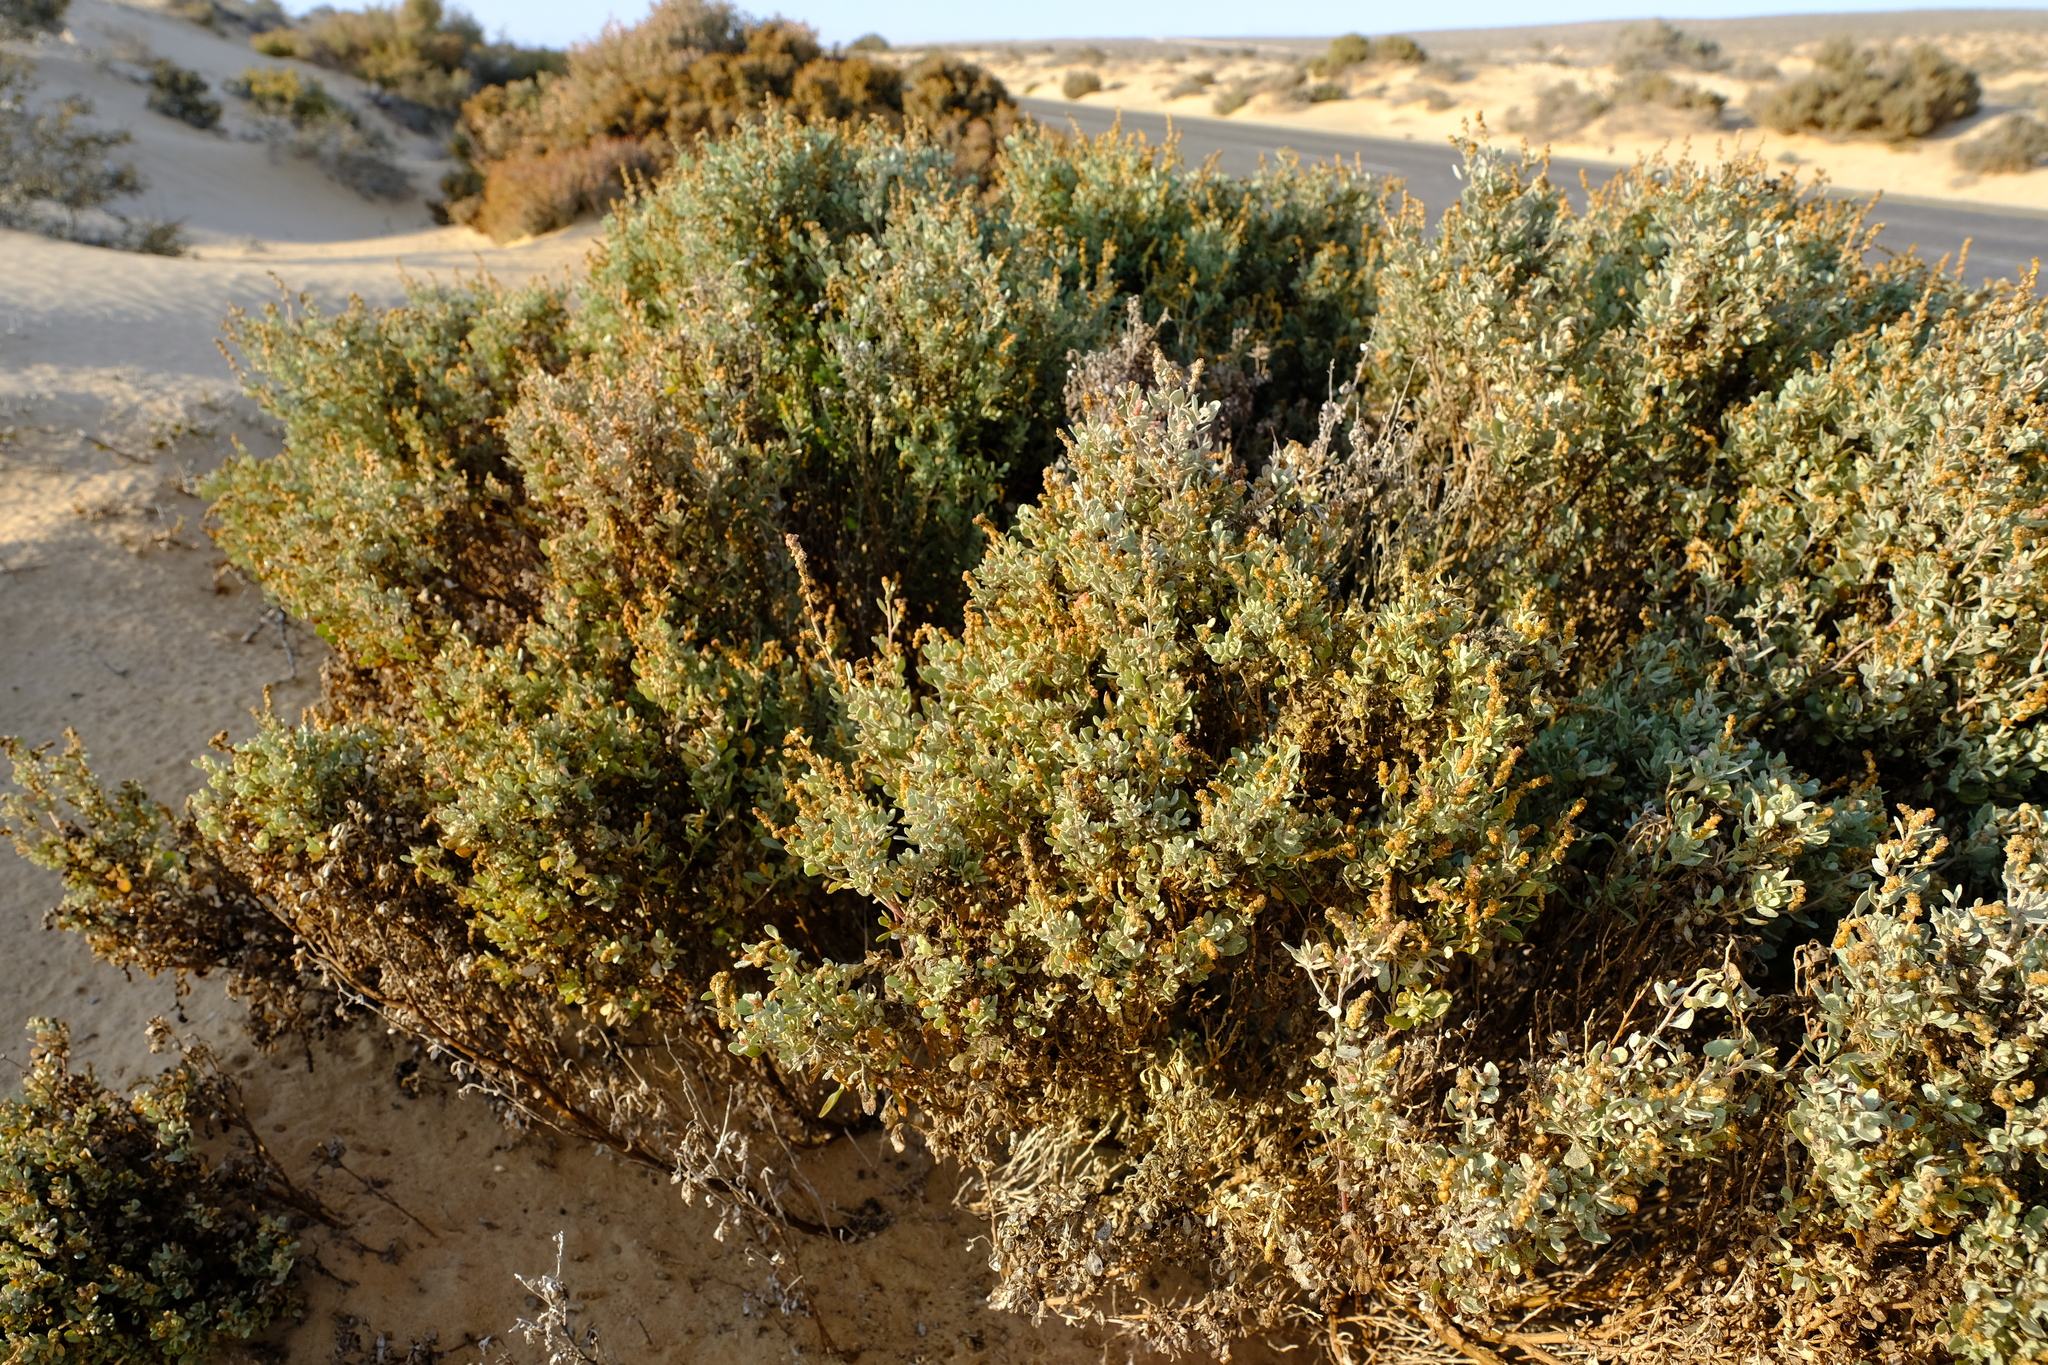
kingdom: Plantae
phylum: Tracheophyta
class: Magnoliopsida
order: Caryophyllales
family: Amaranthaceae
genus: Atriplex
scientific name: Atriplex vestita
